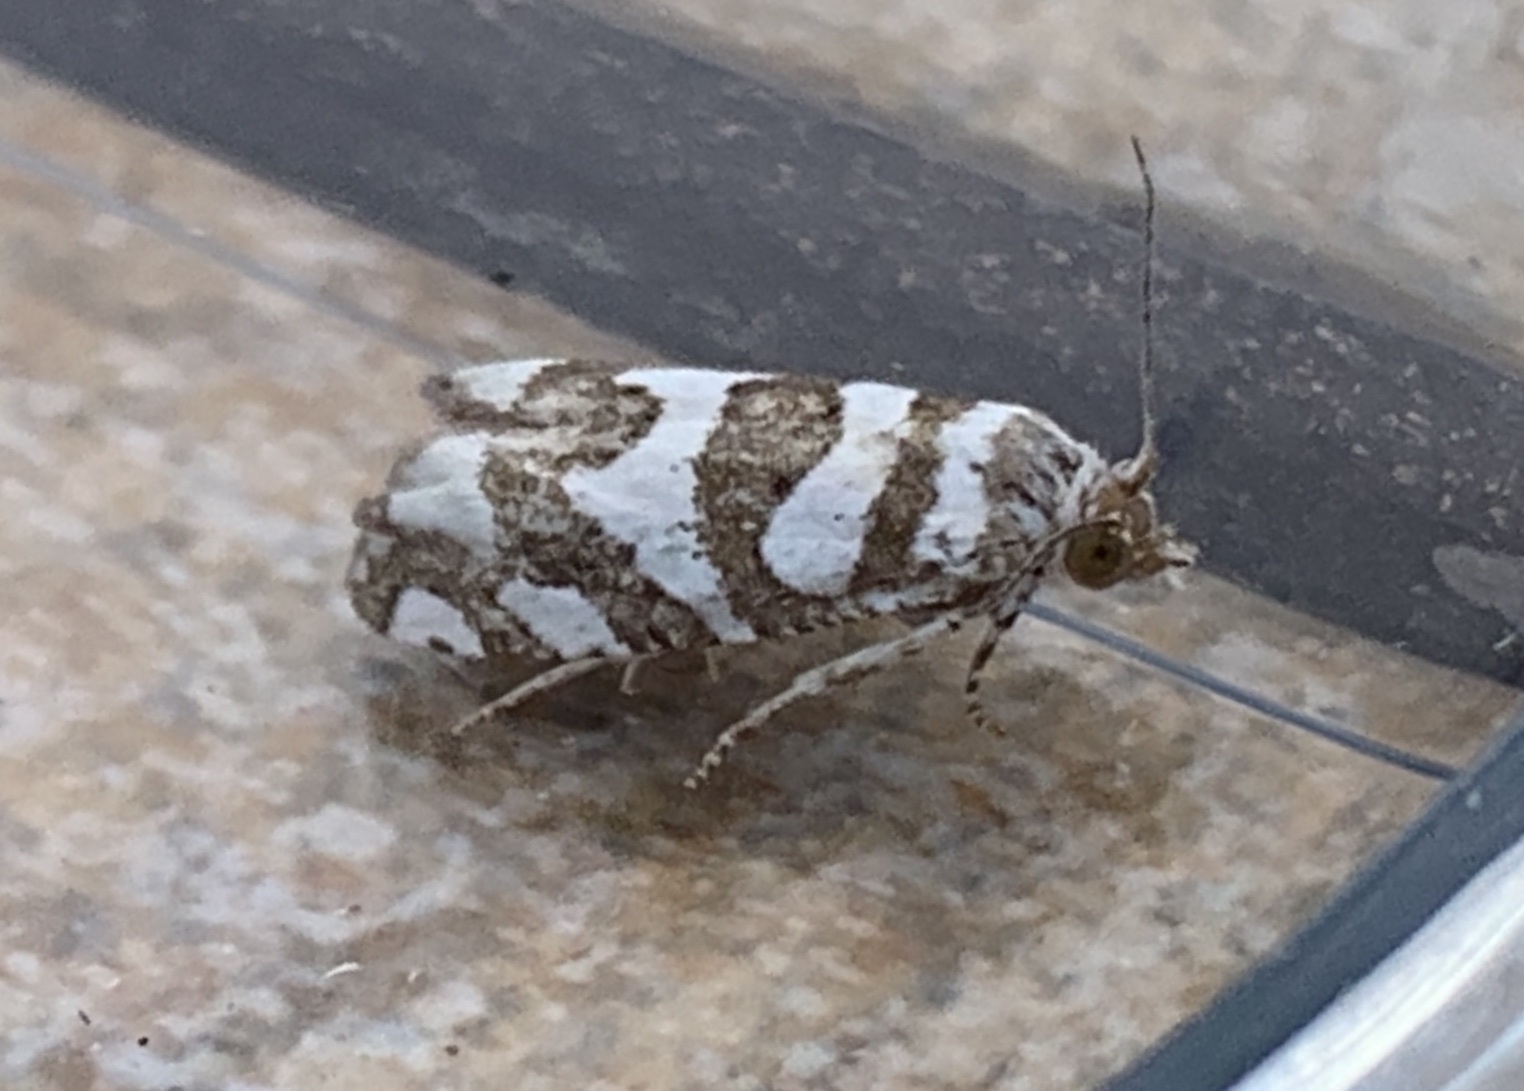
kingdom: Animalia
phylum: Arthropoda
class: Insecta
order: Lepidoptera
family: Tortricidae
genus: Pelochrista
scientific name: Pelochrista robinsonana
